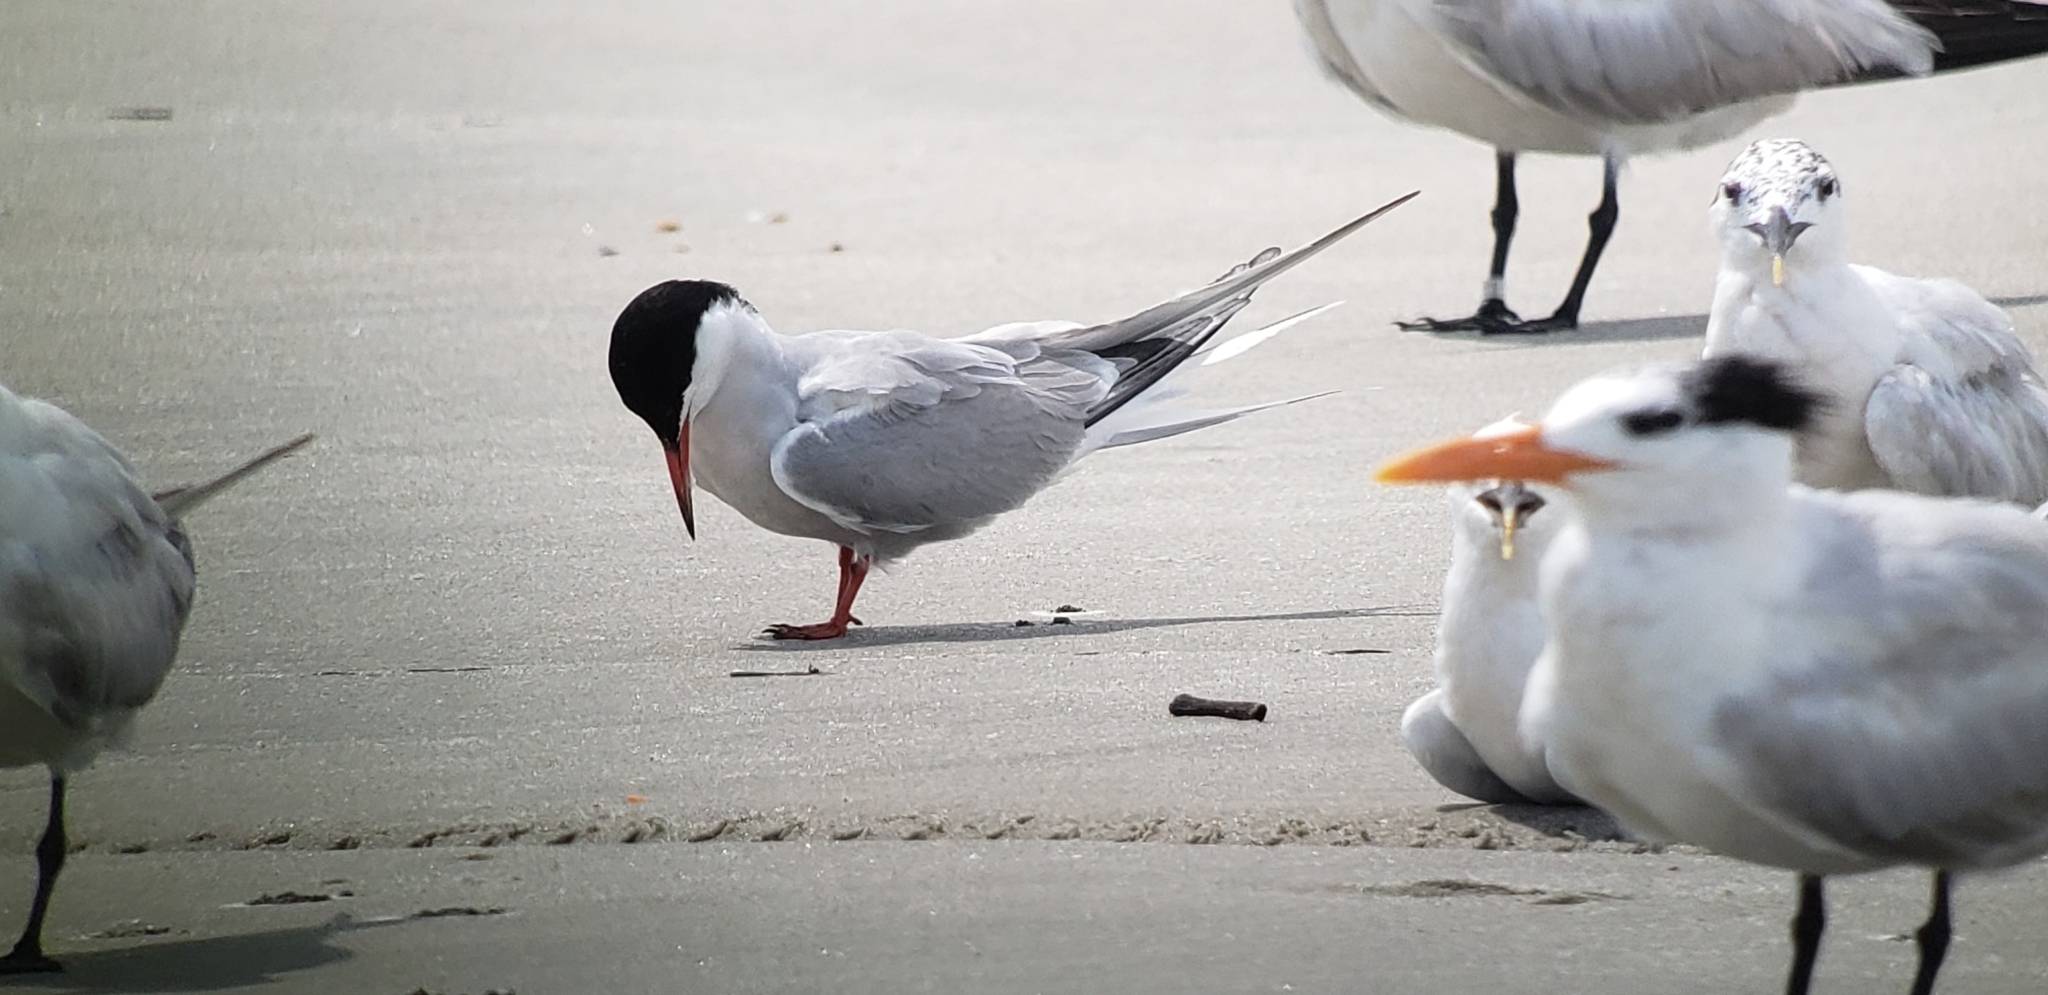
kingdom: Animalia
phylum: Chordata
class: Aves
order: Charadriiformes
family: Laridae
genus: Sterna
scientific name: Sterna hirundo
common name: Common tern
